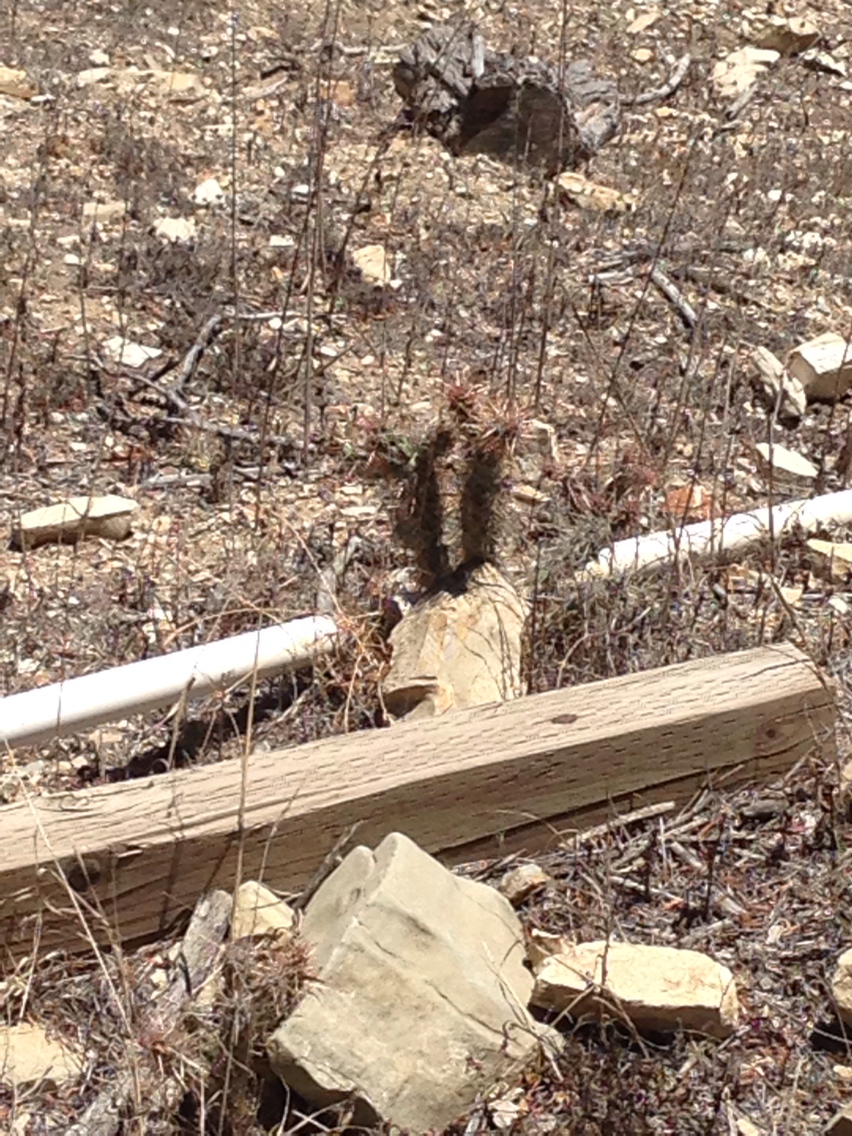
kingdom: Plantae
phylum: Tracheophyta
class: Magnoliopsida
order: Caryophyllales
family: Cactaceae
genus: Cylindropuntia
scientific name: Cylindropuntia prolifera
